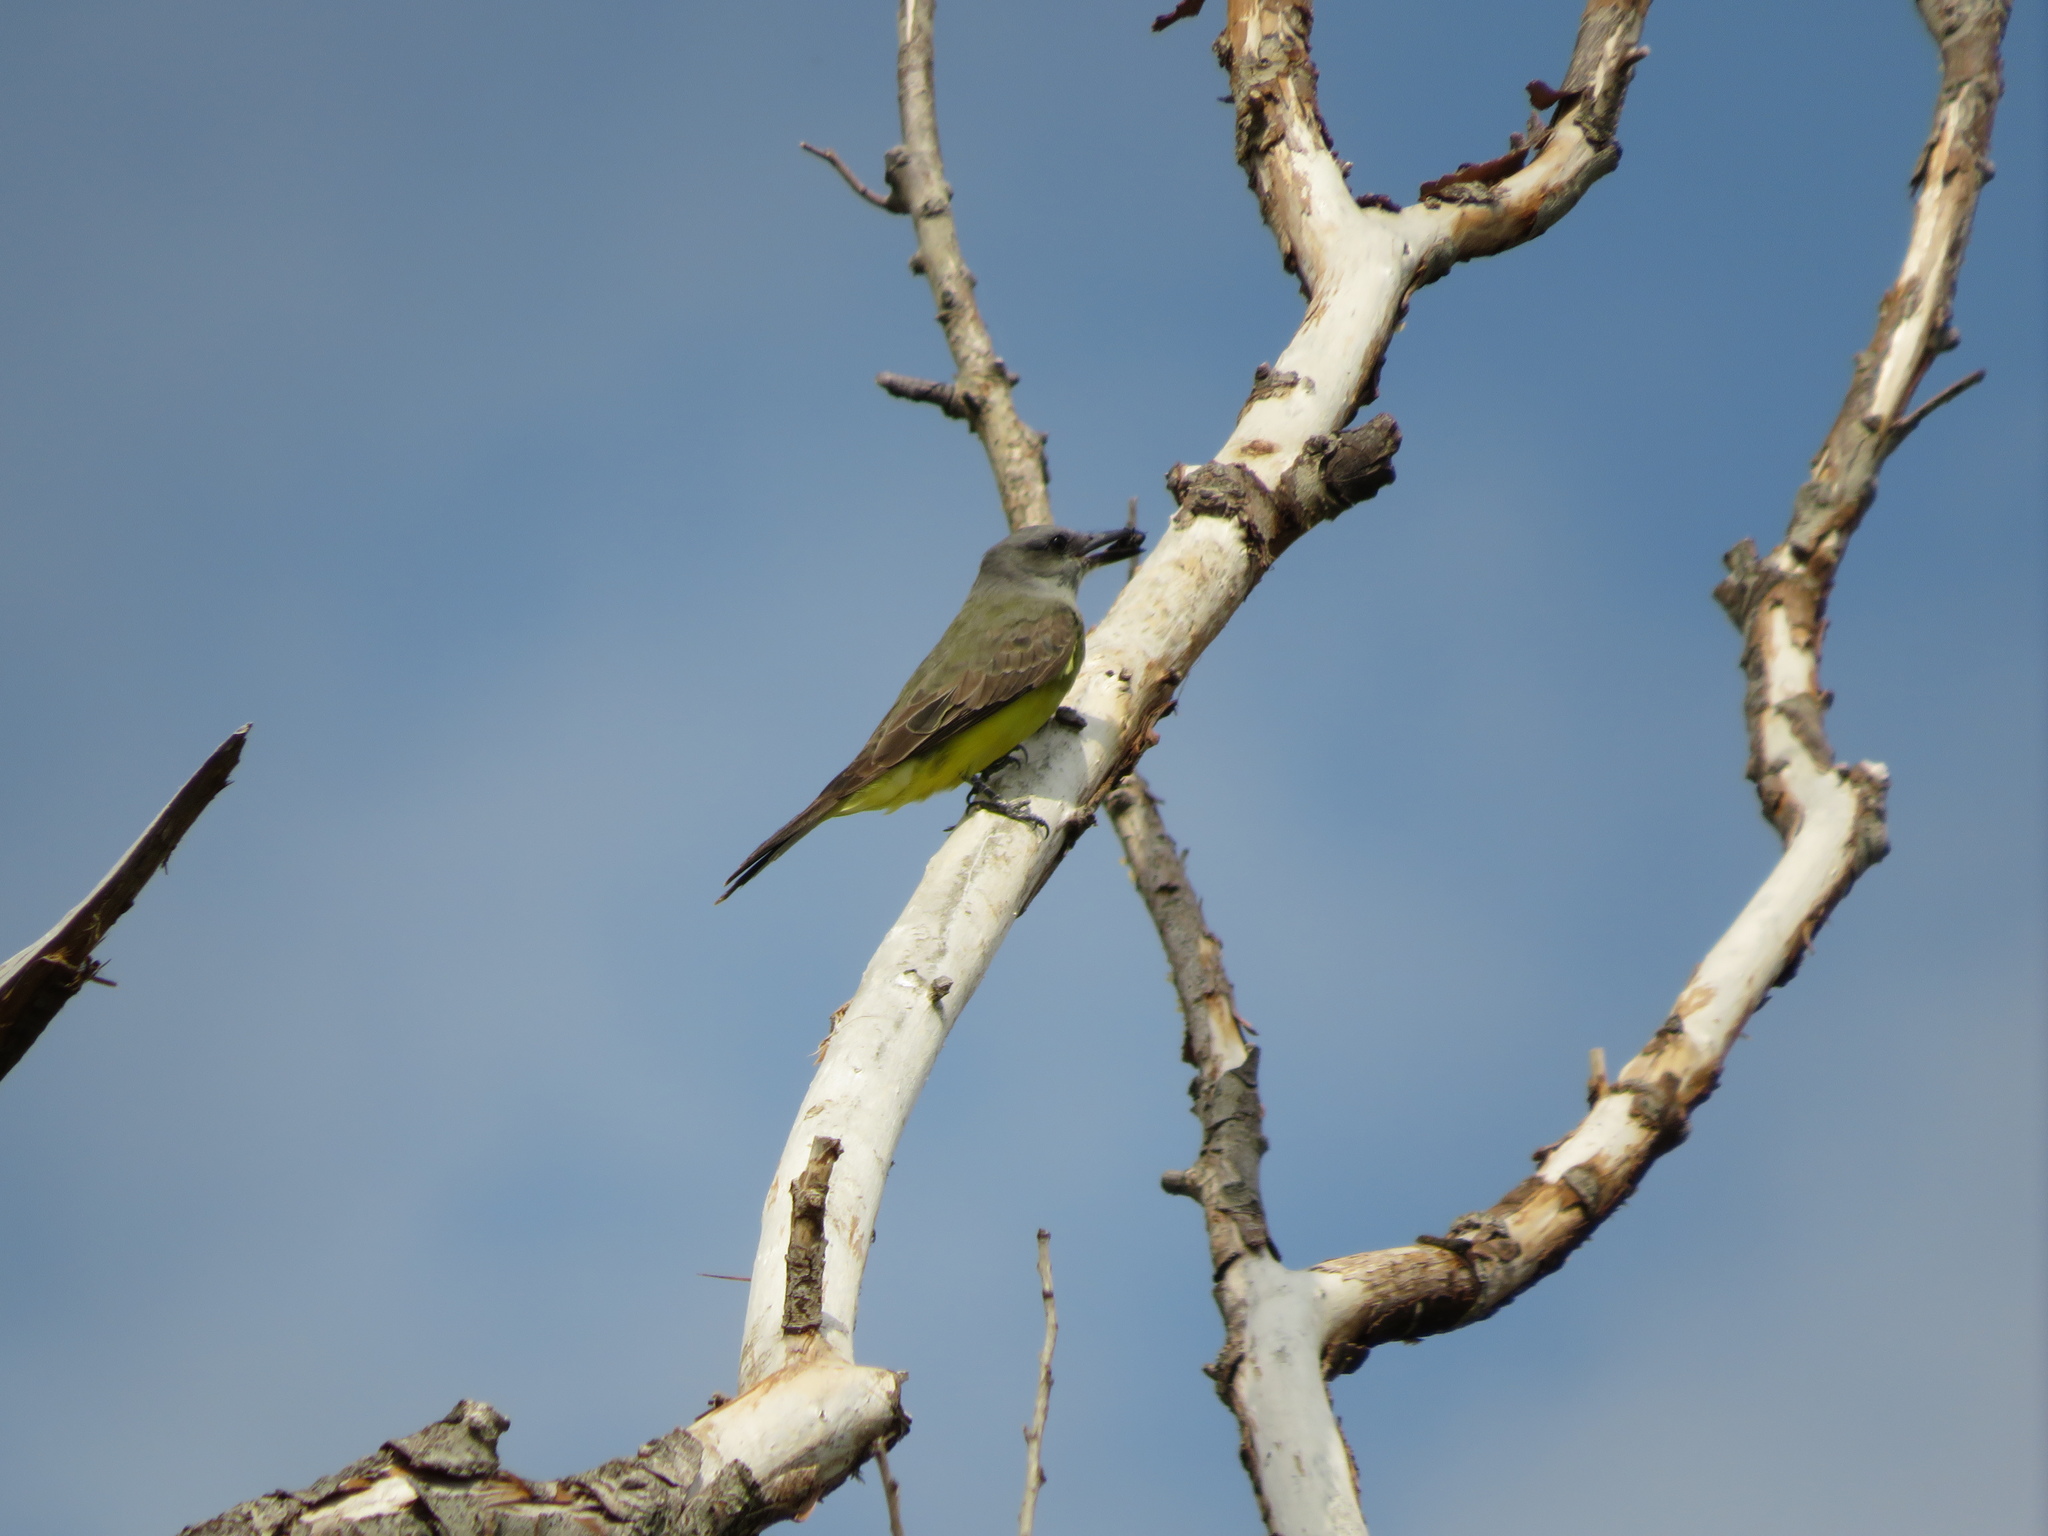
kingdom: Animalia
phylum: Chordata
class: Aves
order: Passeriformes
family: Tyrannidae
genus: Tyrannus
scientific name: Tyrannus melancholicus
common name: Tropical kingbird
